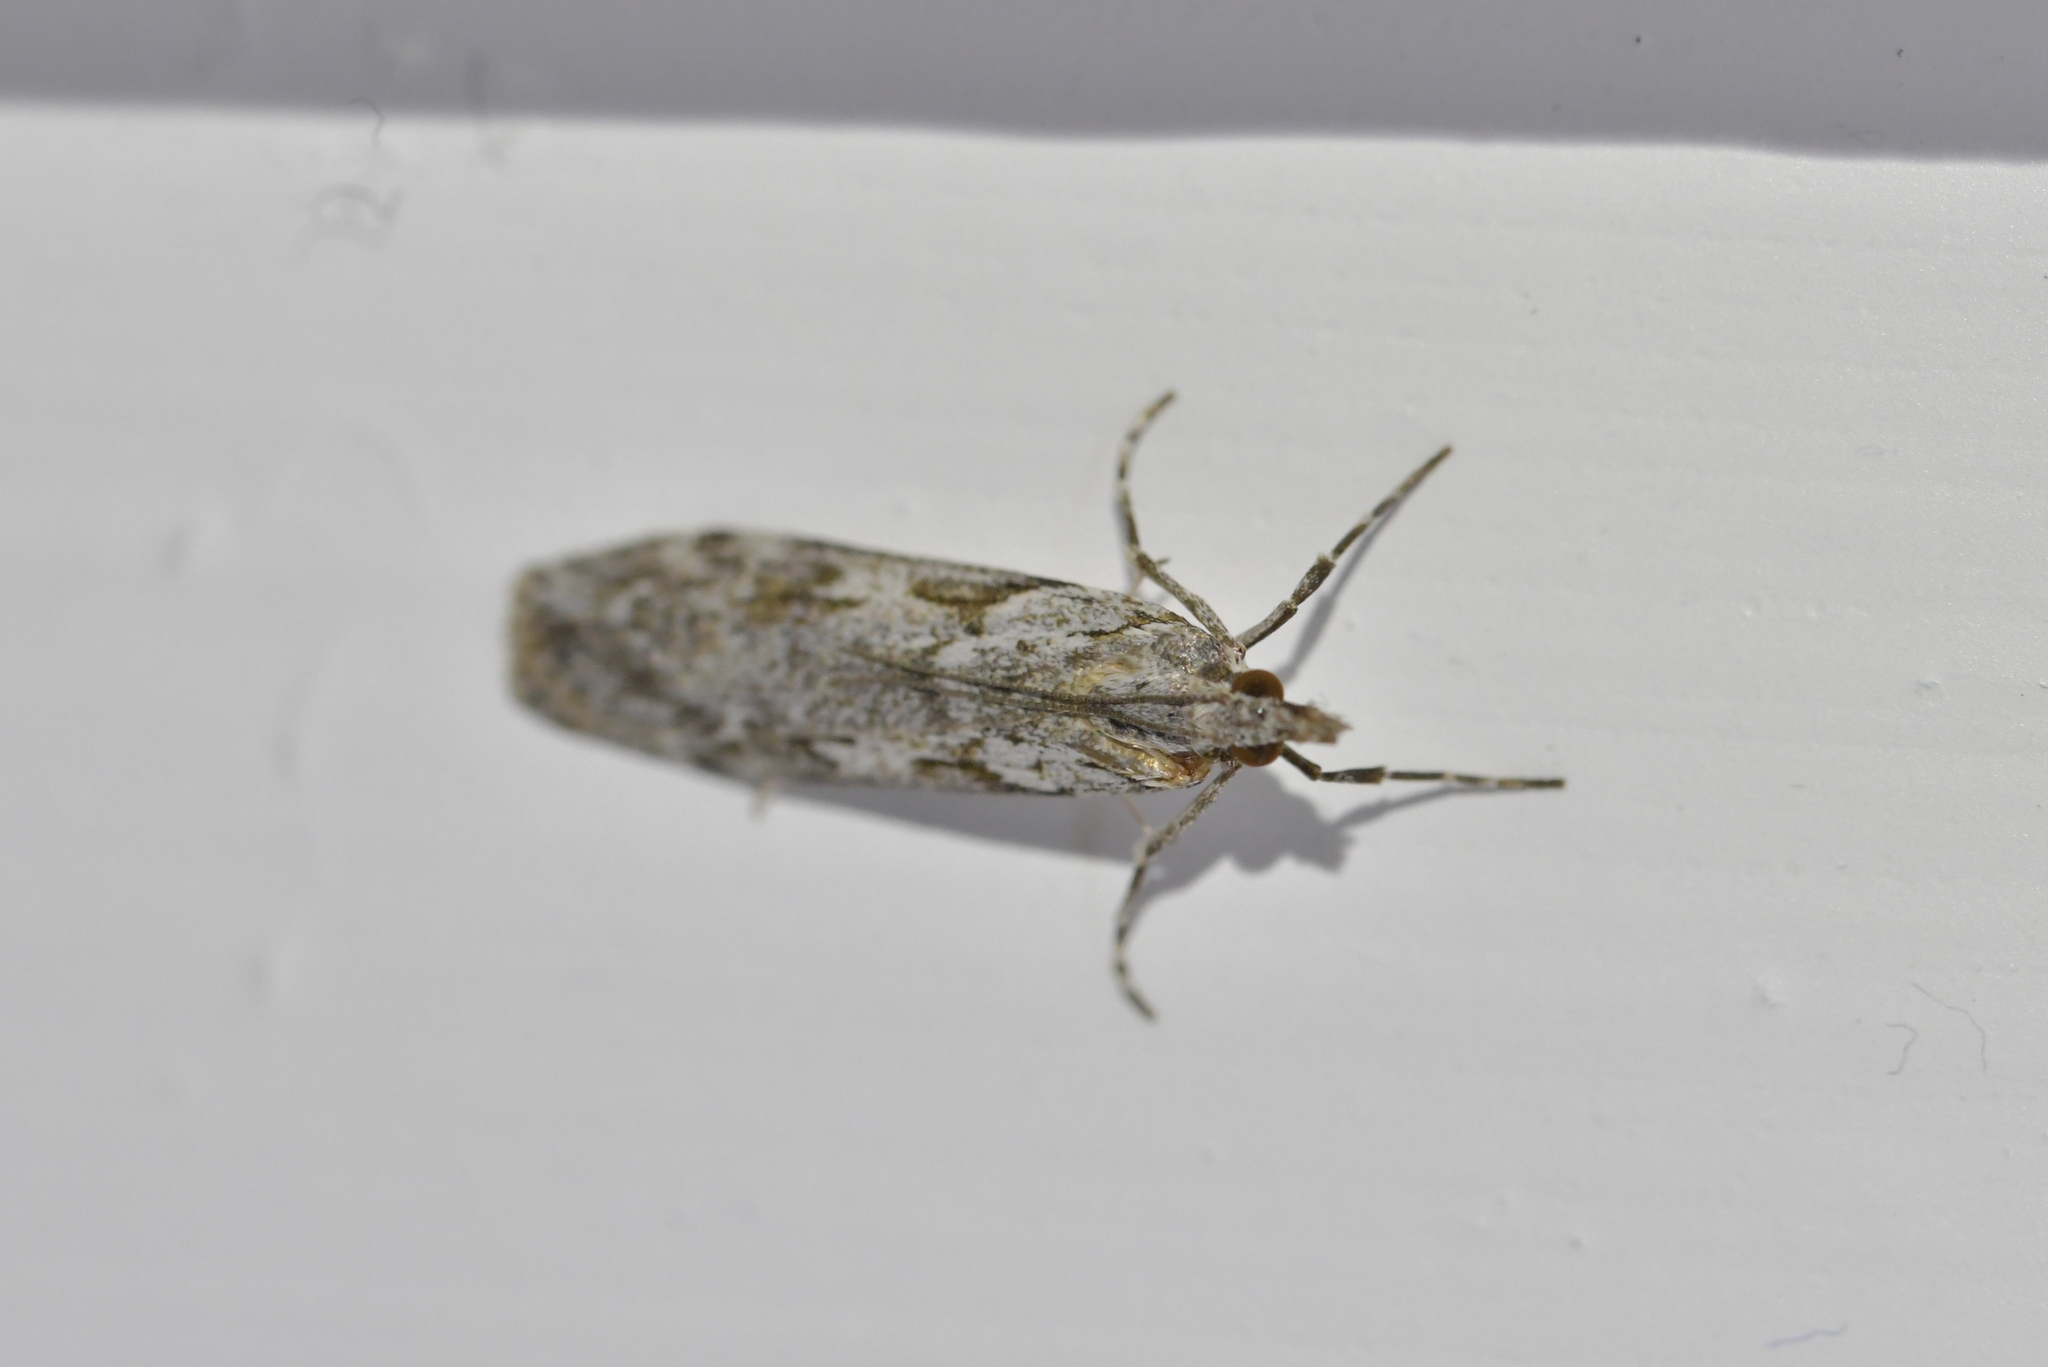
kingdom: Animalia
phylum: Arthropoda
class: Insecta
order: Lepidoptera
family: Crambidae
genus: Scoparia
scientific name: Scoparia halopis
